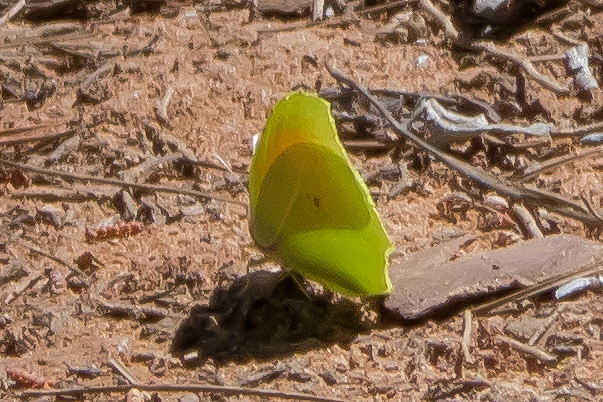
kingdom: Animalia
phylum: Arthropoda
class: Insecta
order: Lepidoptera
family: Pieridae
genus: Gonepteryx
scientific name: Gonepteryx cleopatra
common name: Cleopatra
